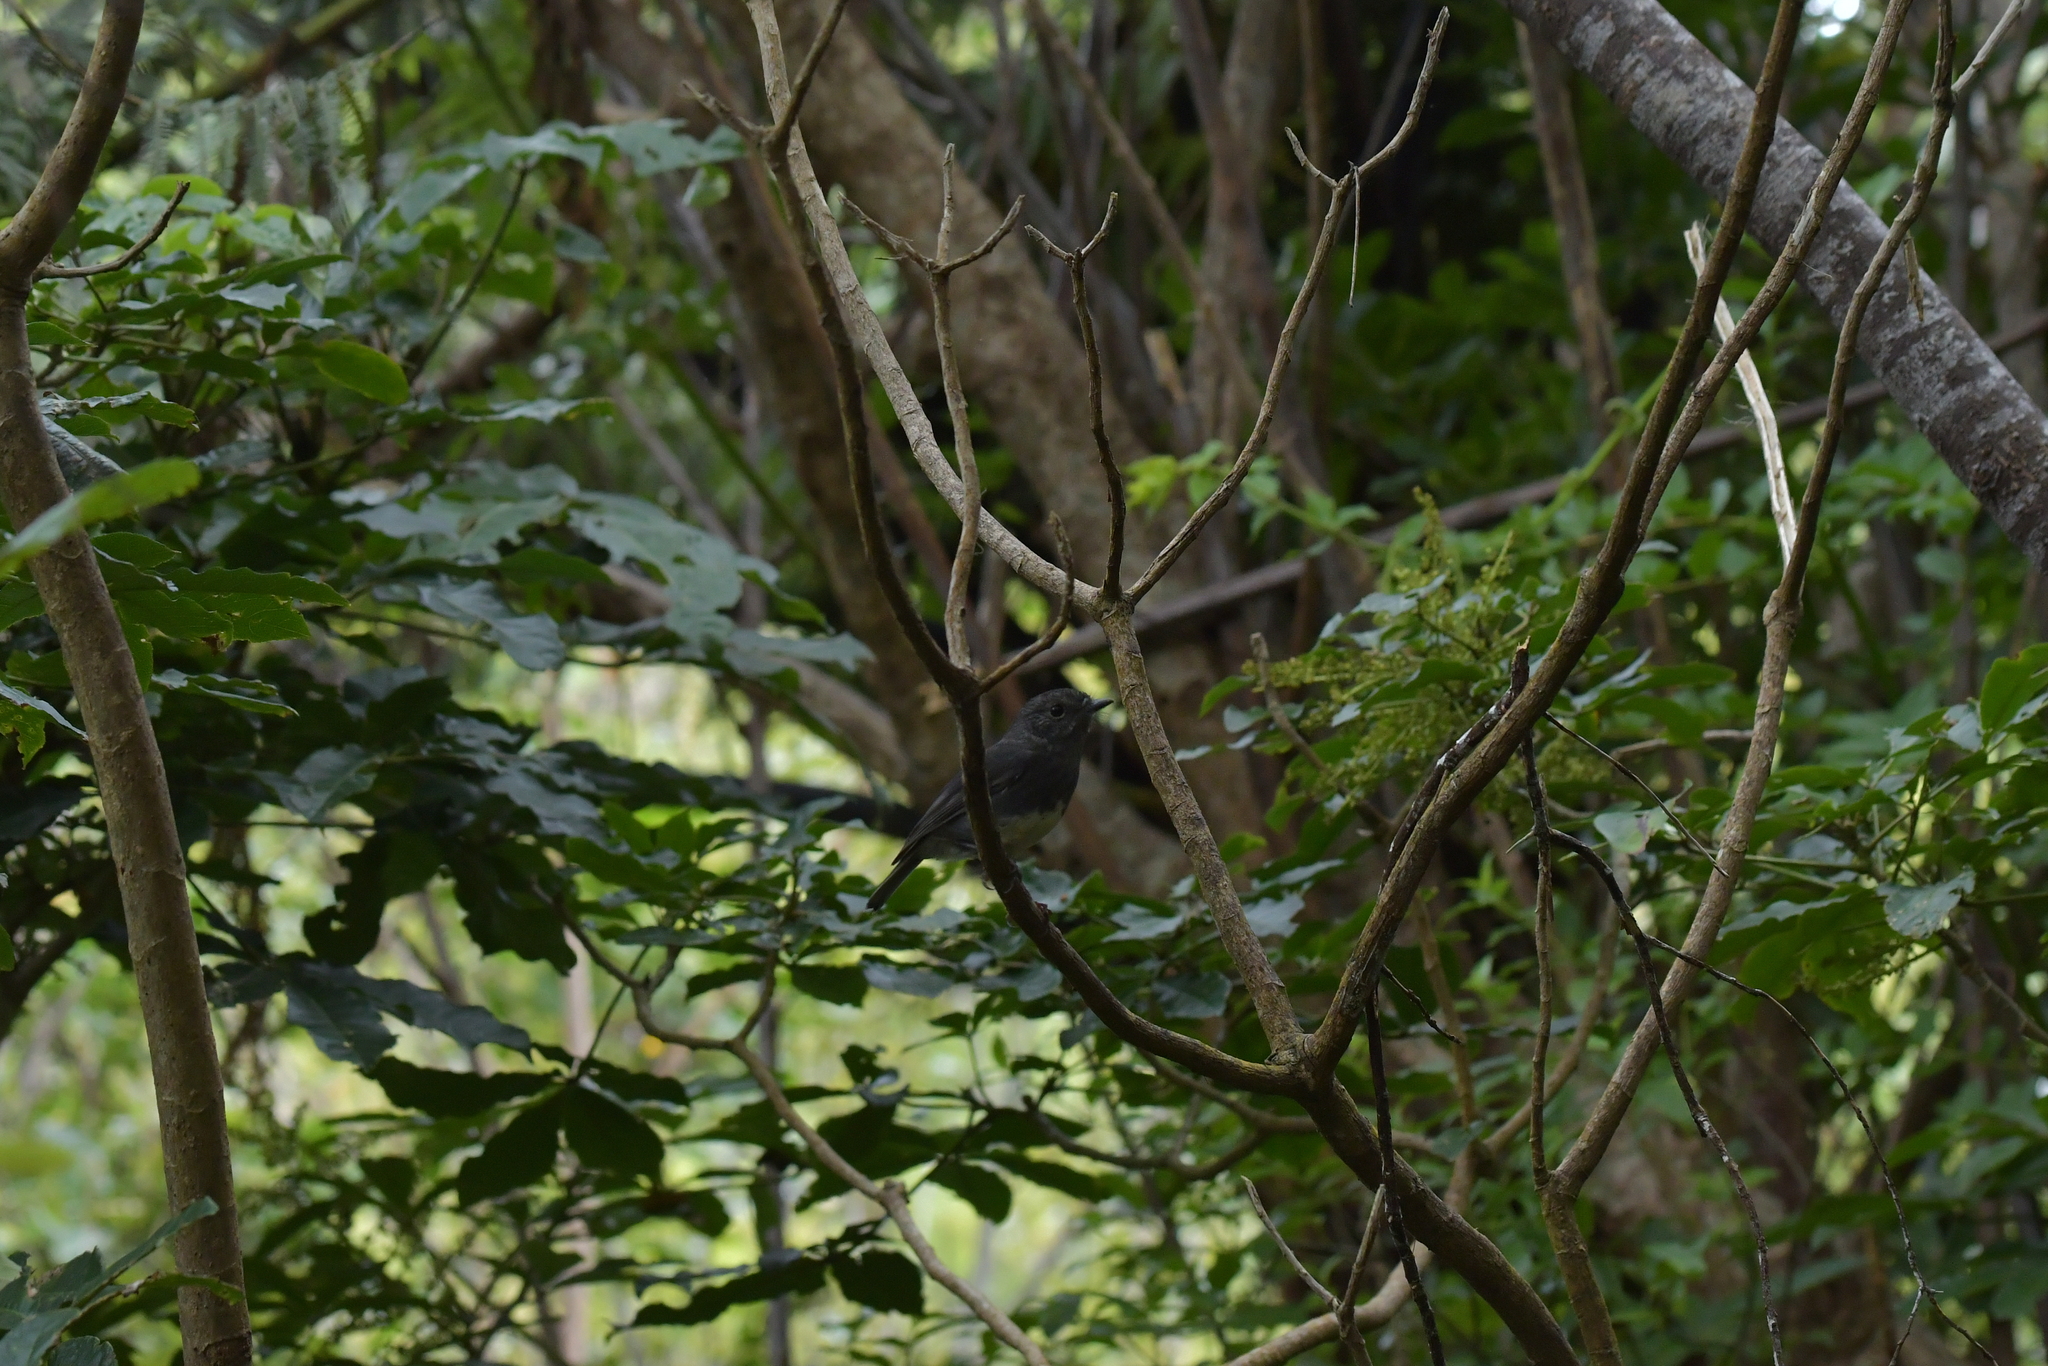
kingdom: Animalia
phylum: Chordata
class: Aves
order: Passeriformes
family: Petroicidae
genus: Petroica
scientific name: Petroica australis
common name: New zealand robin
